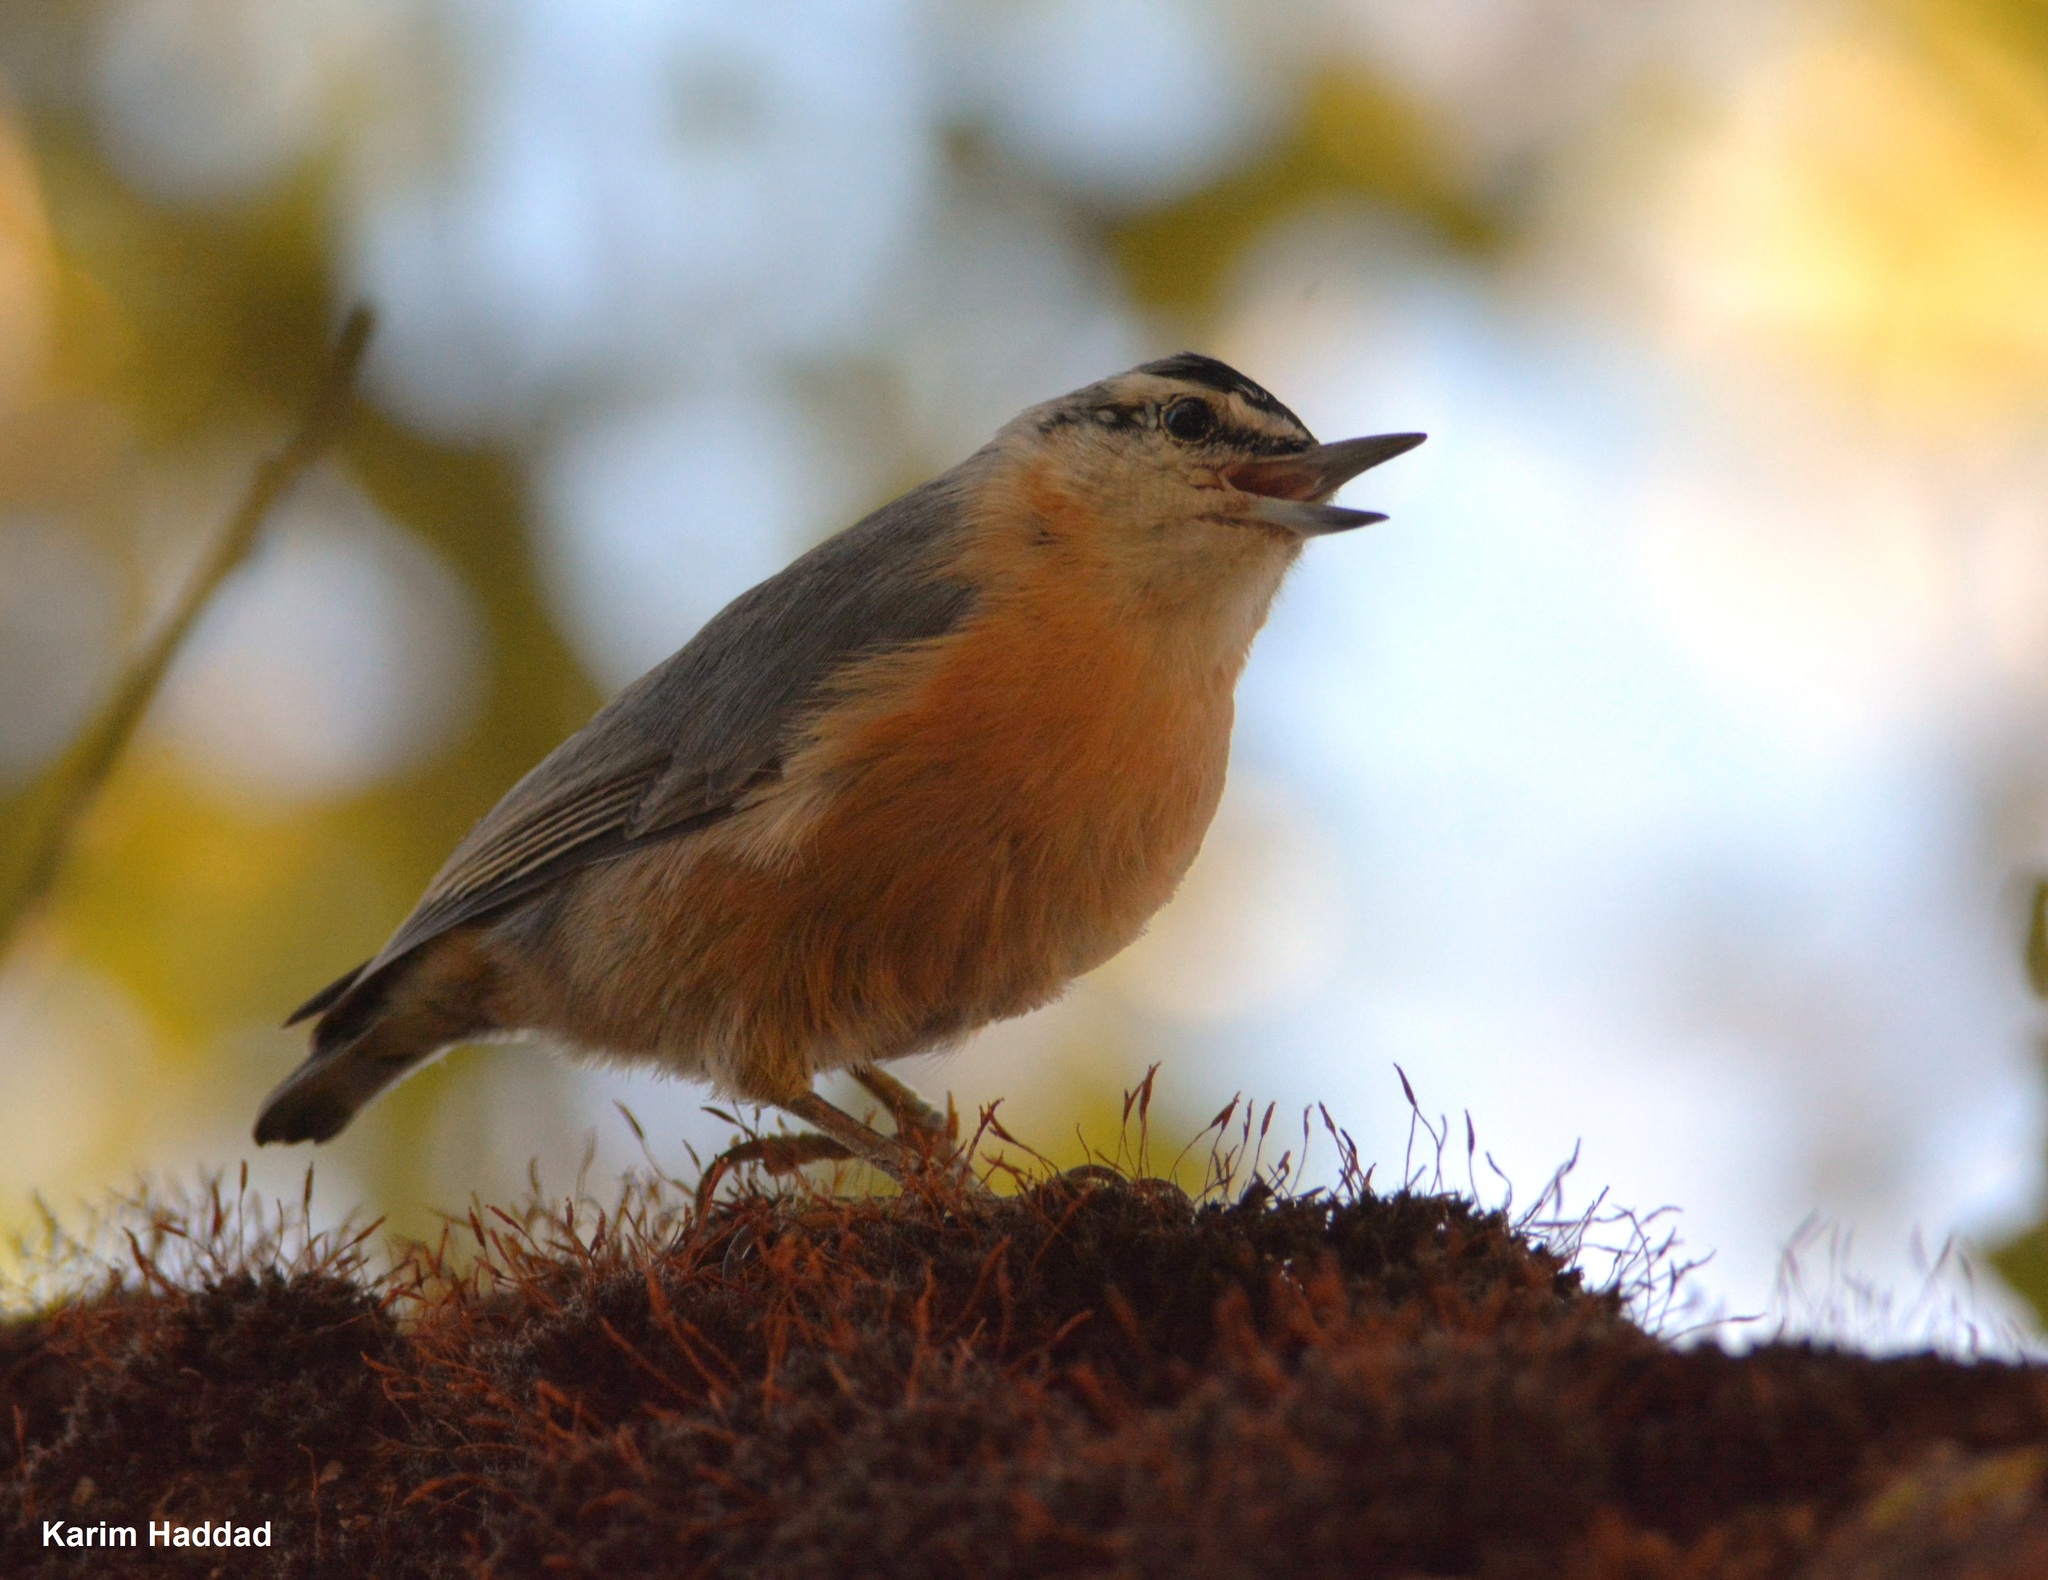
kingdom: Animalia
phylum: Chordata
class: Aves
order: Passeriformes
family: Sittidae
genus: Sitta
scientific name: Sitta ledanti
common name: Algerian nuthatch
